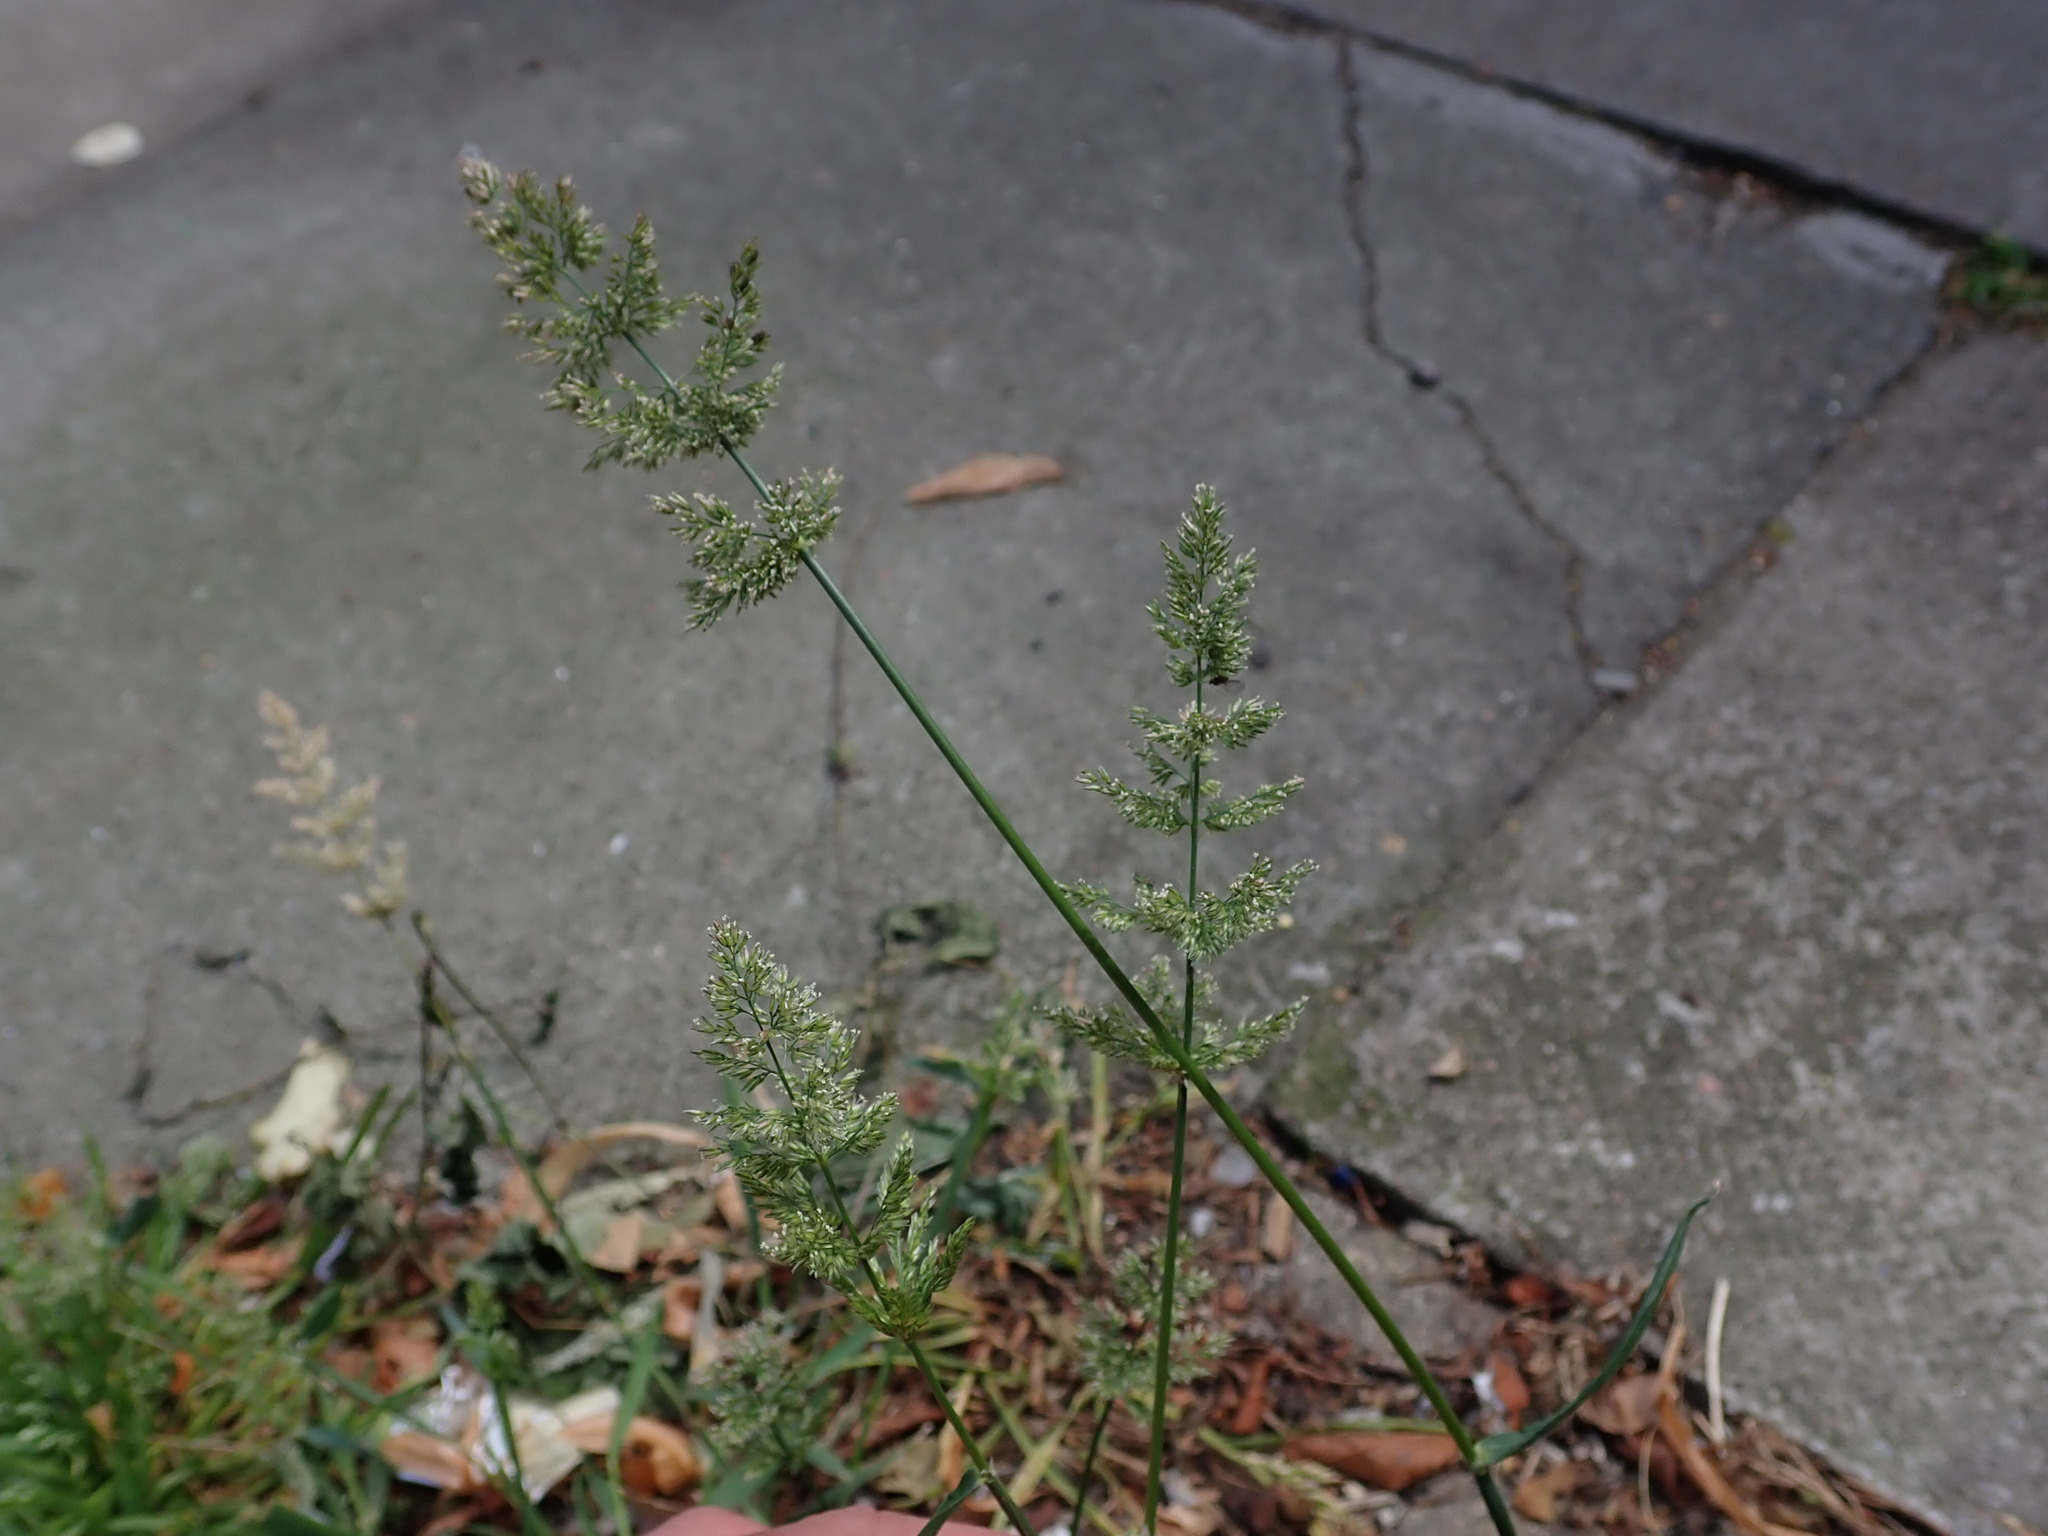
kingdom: Plantae
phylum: Tracheophyta
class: Liliopsida
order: Poales
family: Poaceae
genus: Polypogon
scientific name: Polypogon viridis
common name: Water bent
